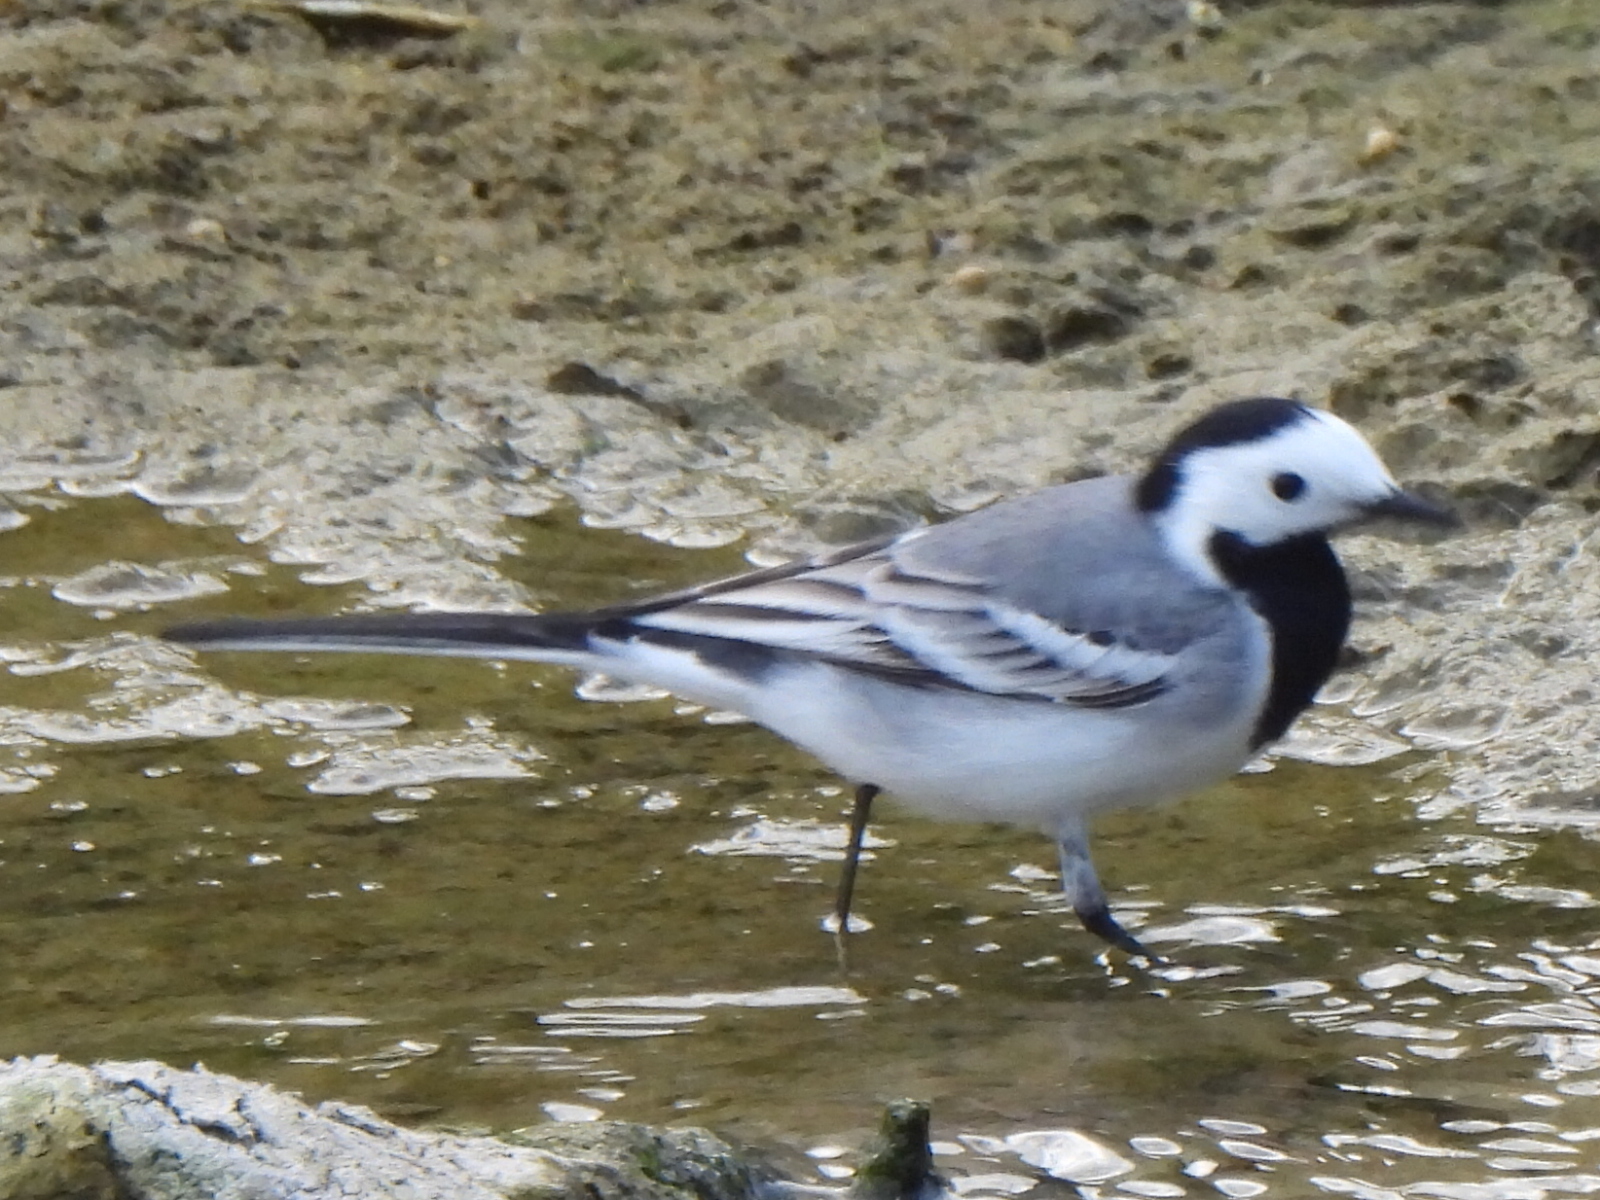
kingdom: Animalia
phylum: Chordata
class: Aves
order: Passeriformes
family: Motacillidae
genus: Motacilla
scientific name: Motacilla alba
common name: White wagtail
